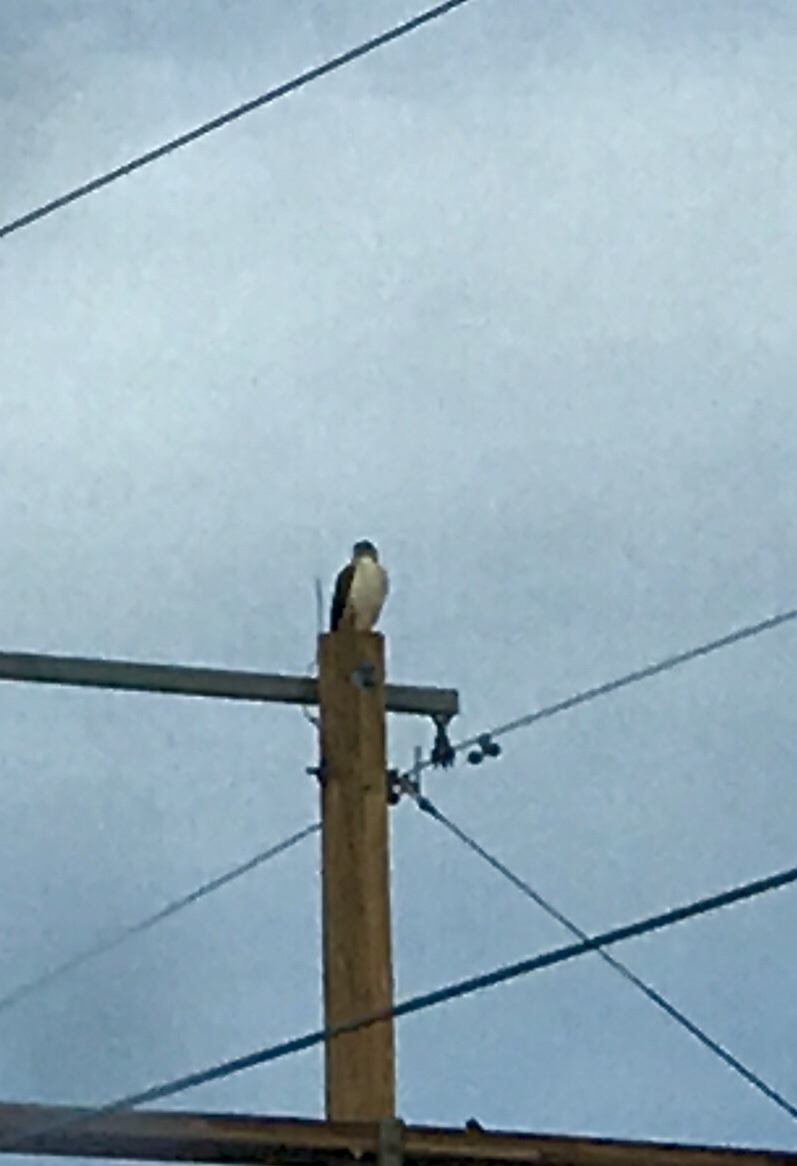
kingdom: Animalia
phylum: Chordata
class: Aves
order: Accipitriformes
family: Accipitridae
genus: Buteo
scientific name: Buteo
